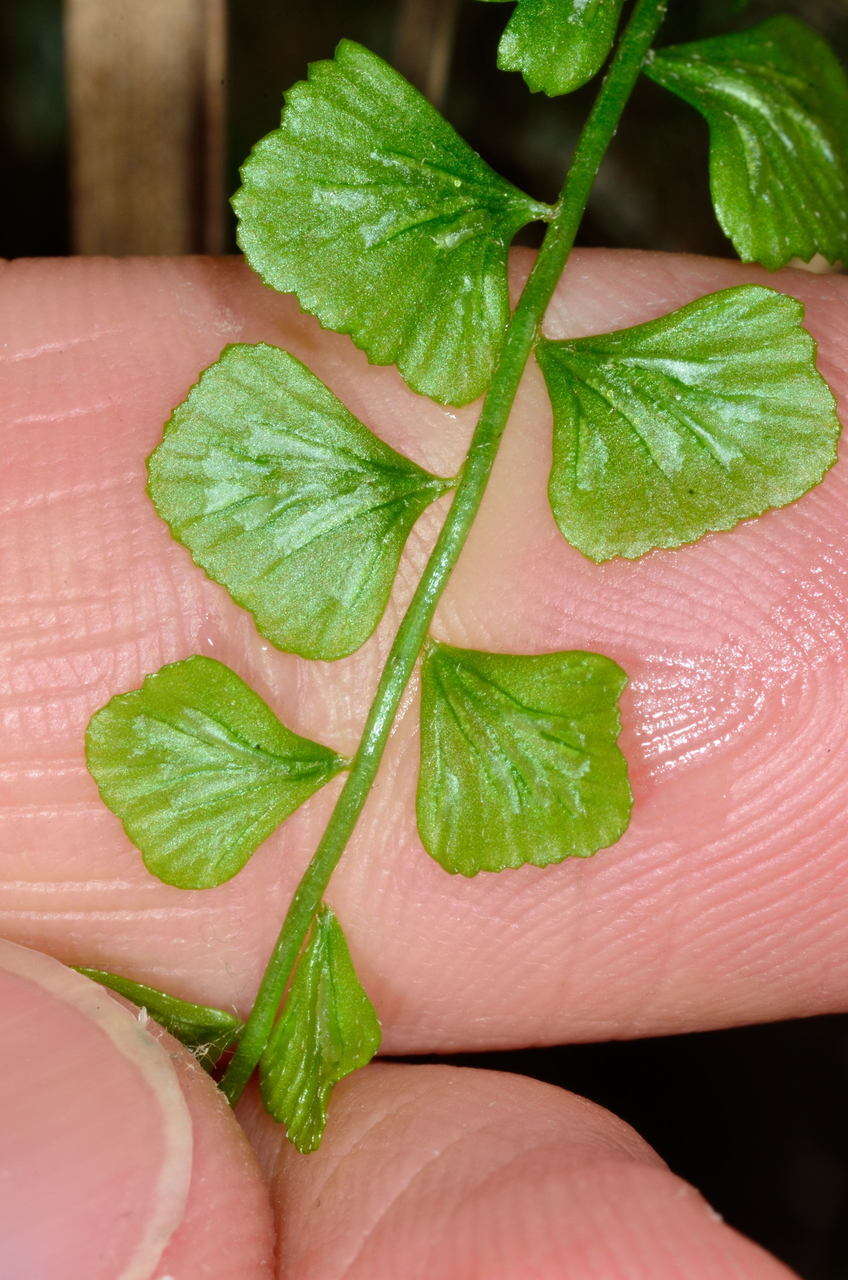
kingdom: Plantae
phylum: Tracheophyta
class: Polypodiopsida
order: Polypodiales
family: Aspleniaceae
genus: Asplenium
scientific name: Asplenium flabellifolium
